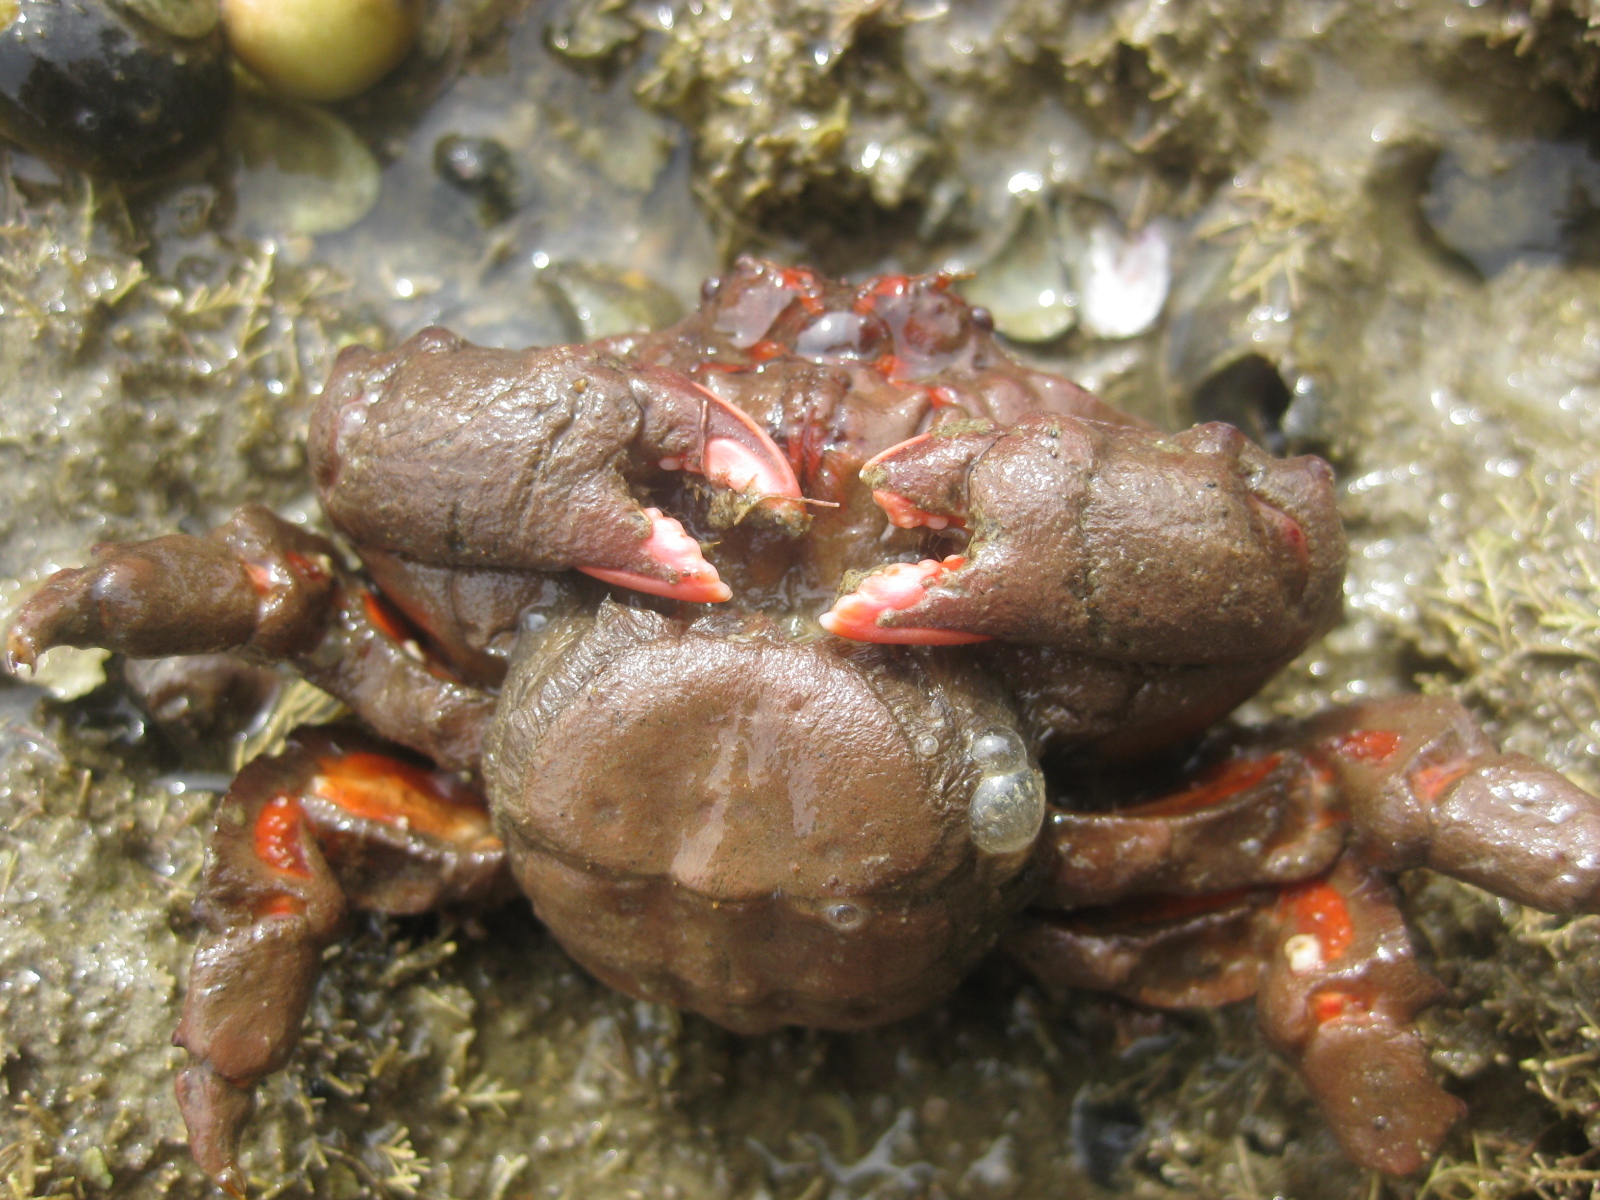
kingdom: Animalia
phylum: Arthropoda
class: Malacostraca
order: Decapoda
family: Dromiidae
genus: Metadromia
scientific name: Metadromia wilsoni
